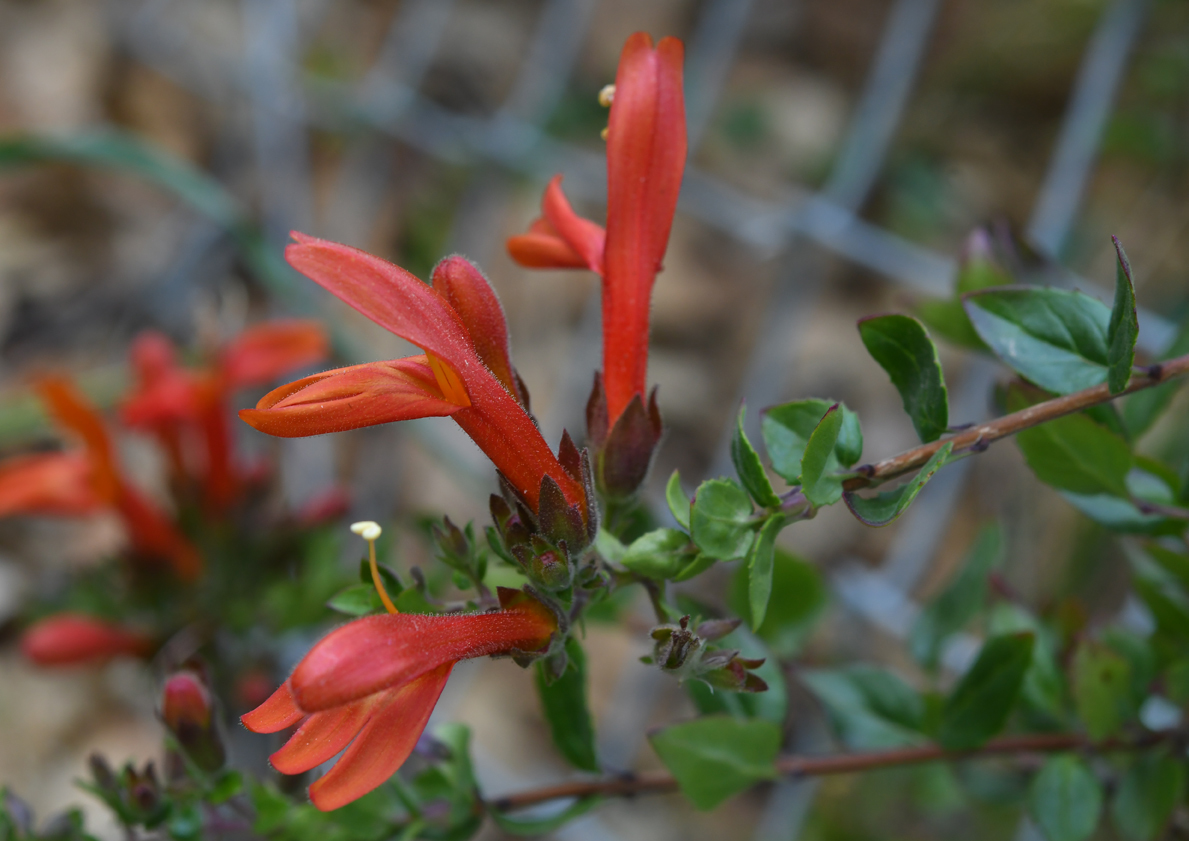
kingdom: Plantae
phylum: Tracheophyta
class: Magnoliopsida
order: Lamiales
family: Plantaginaceae
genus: Keckiella
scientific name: Keckiella cordifolia
